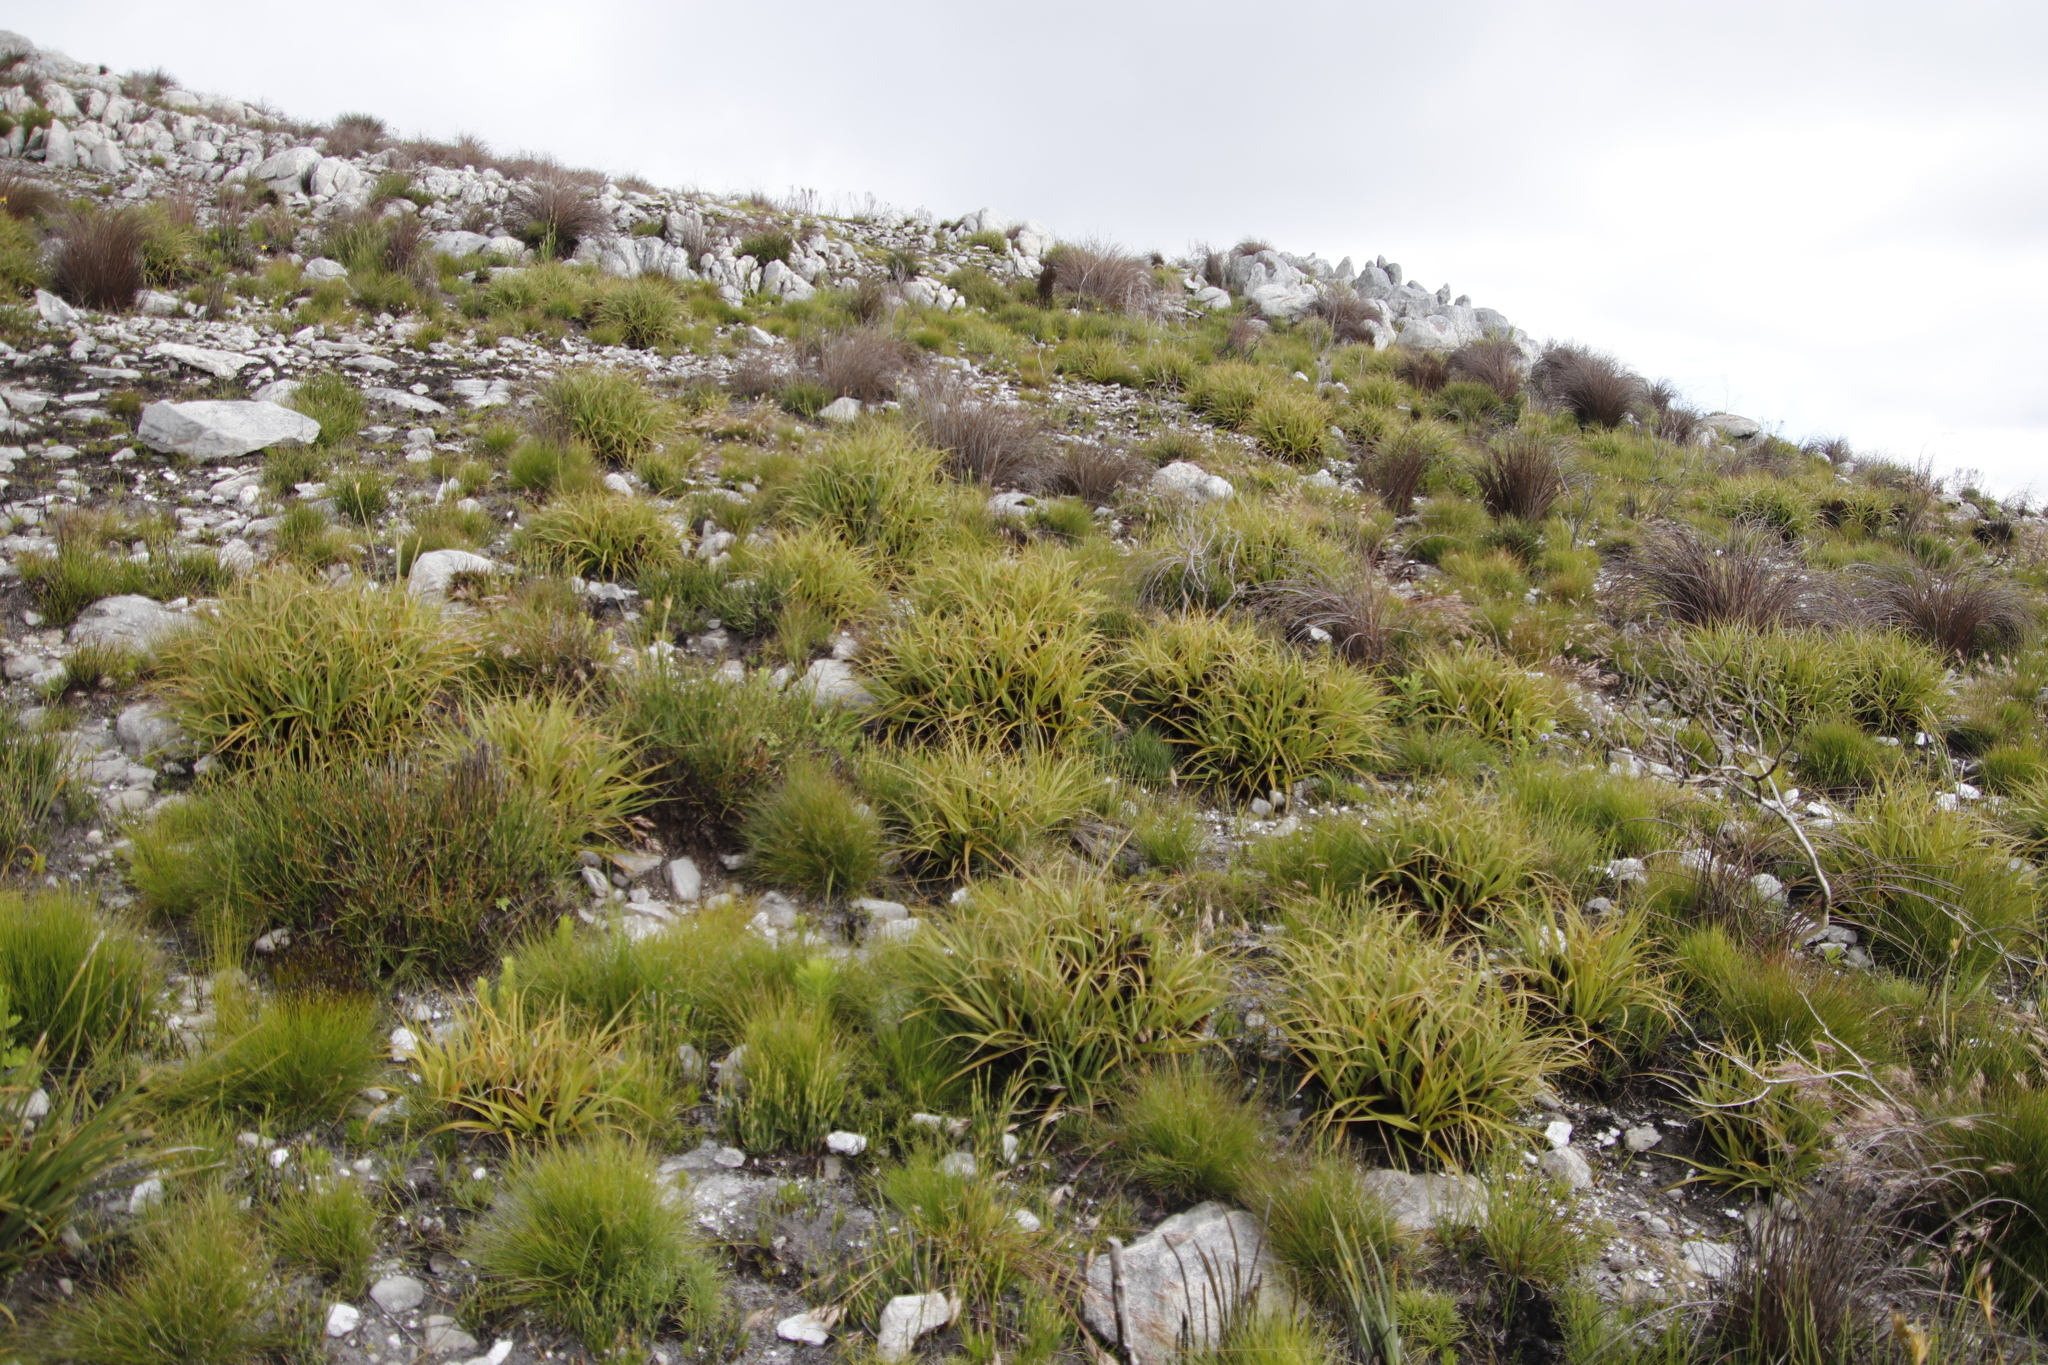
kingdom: Plantae
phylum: Tracheophyta
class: Liliopsida
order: Poales
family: Cyperaceae
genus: Tetraria
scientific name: Tetraria thermalis
